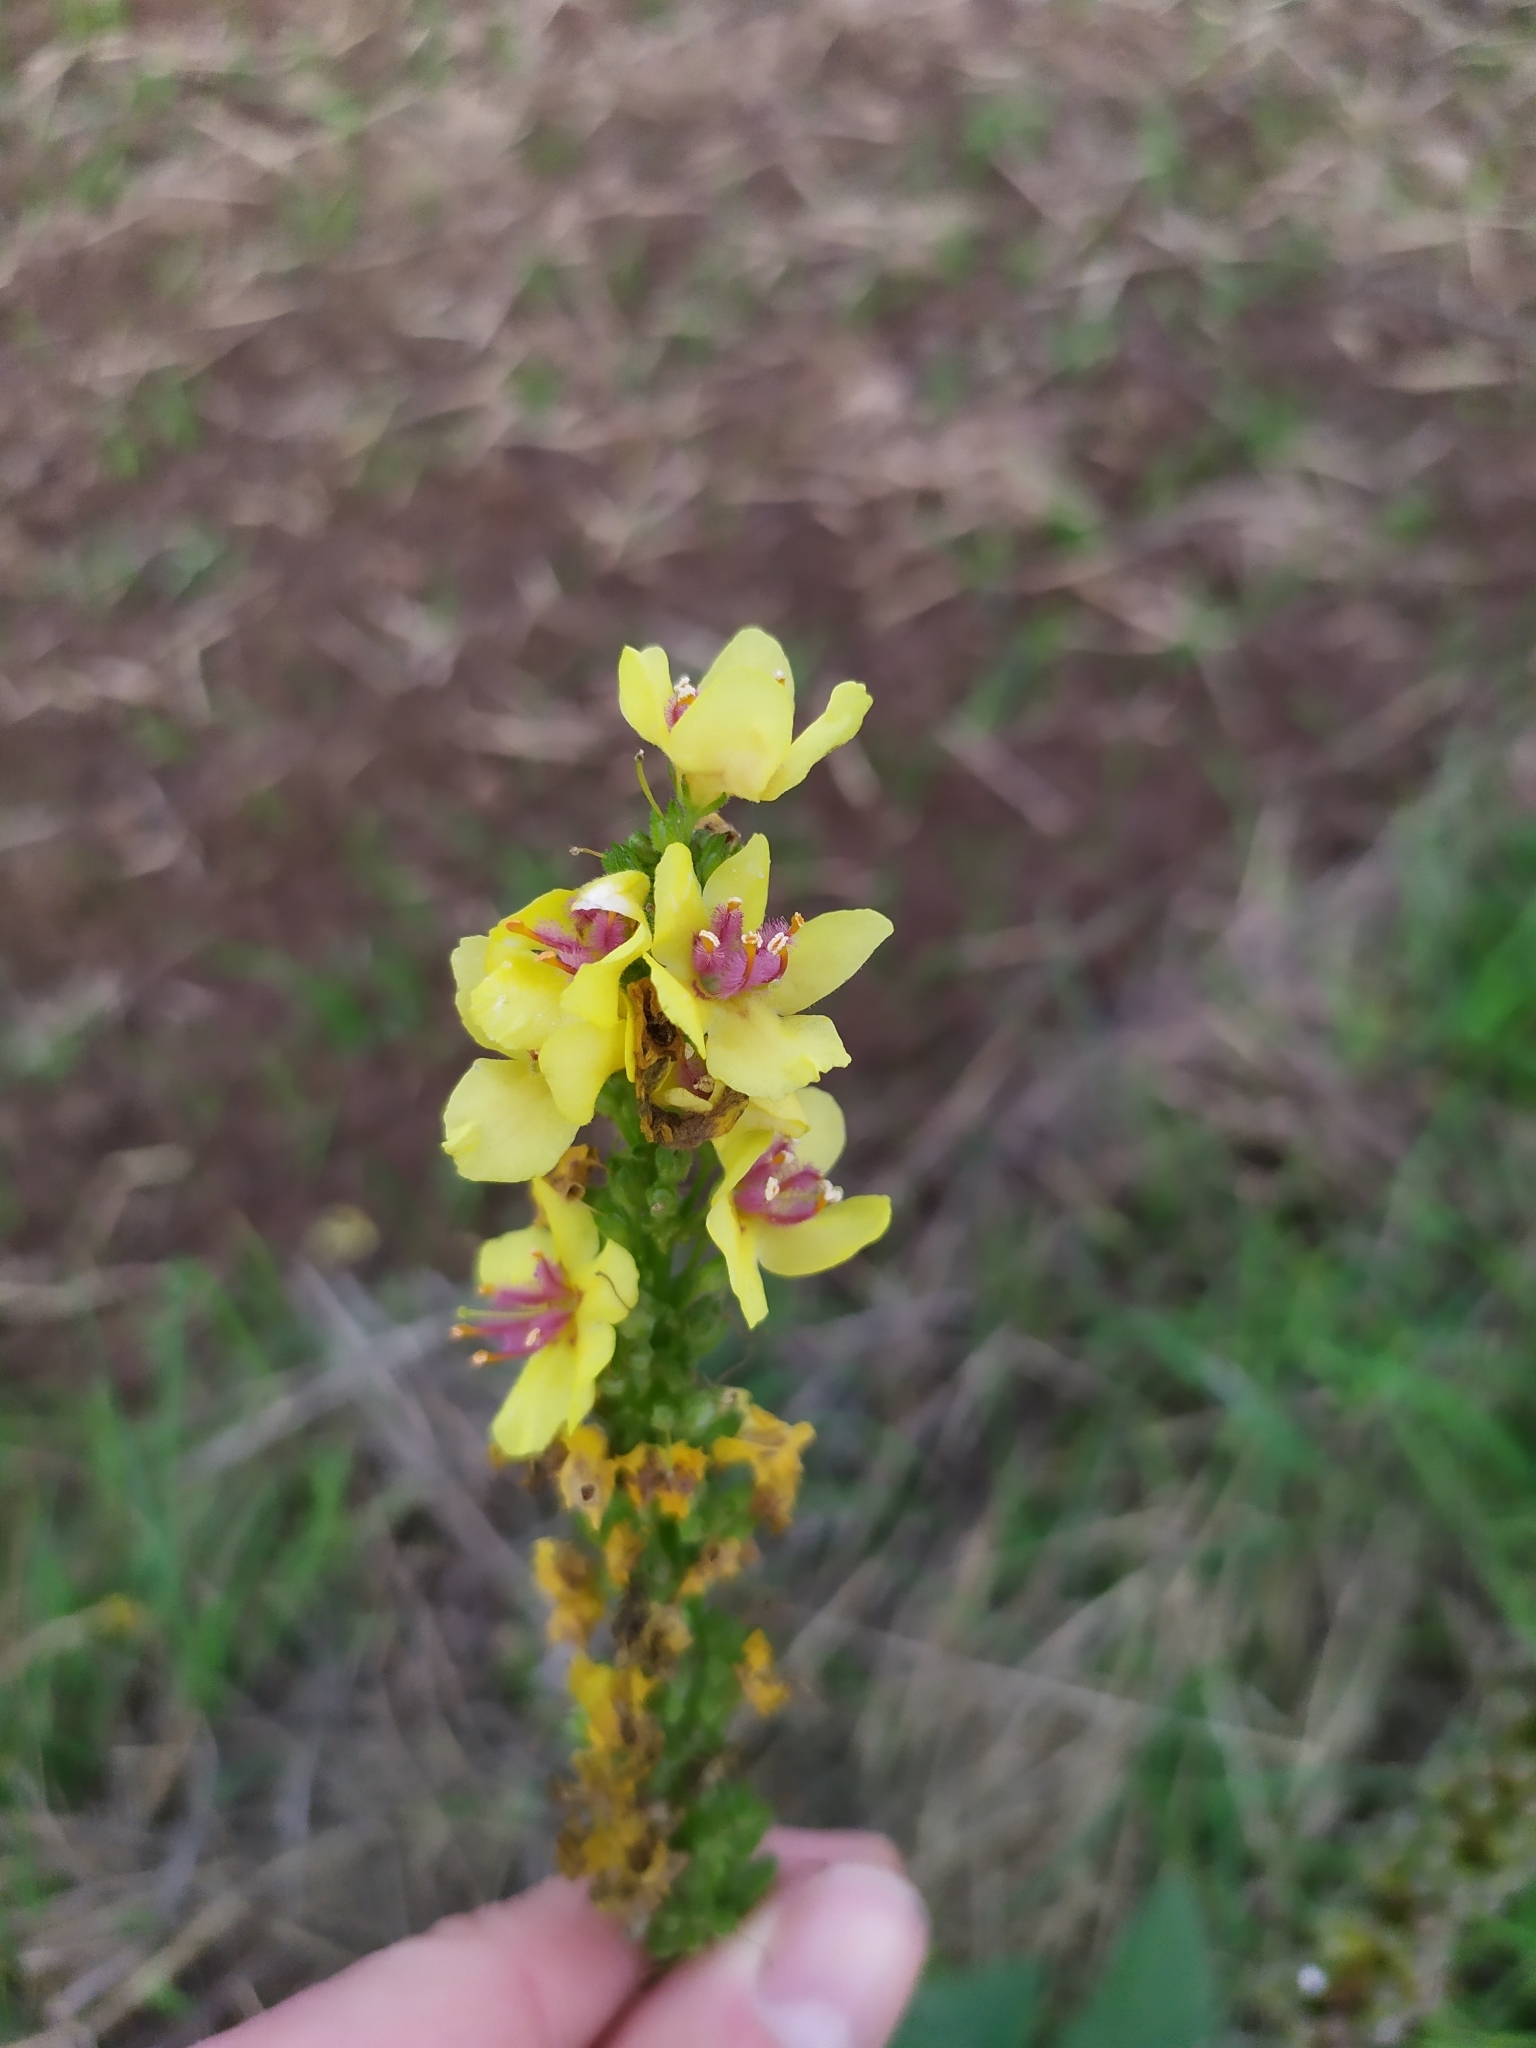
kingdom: Plantae
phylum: Tracheophyta
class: Magnoliopsida
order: Lamiales
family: Scrophulariaceae
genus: Verbascum
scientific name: Verbascum nigrum
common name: Dark mullein
